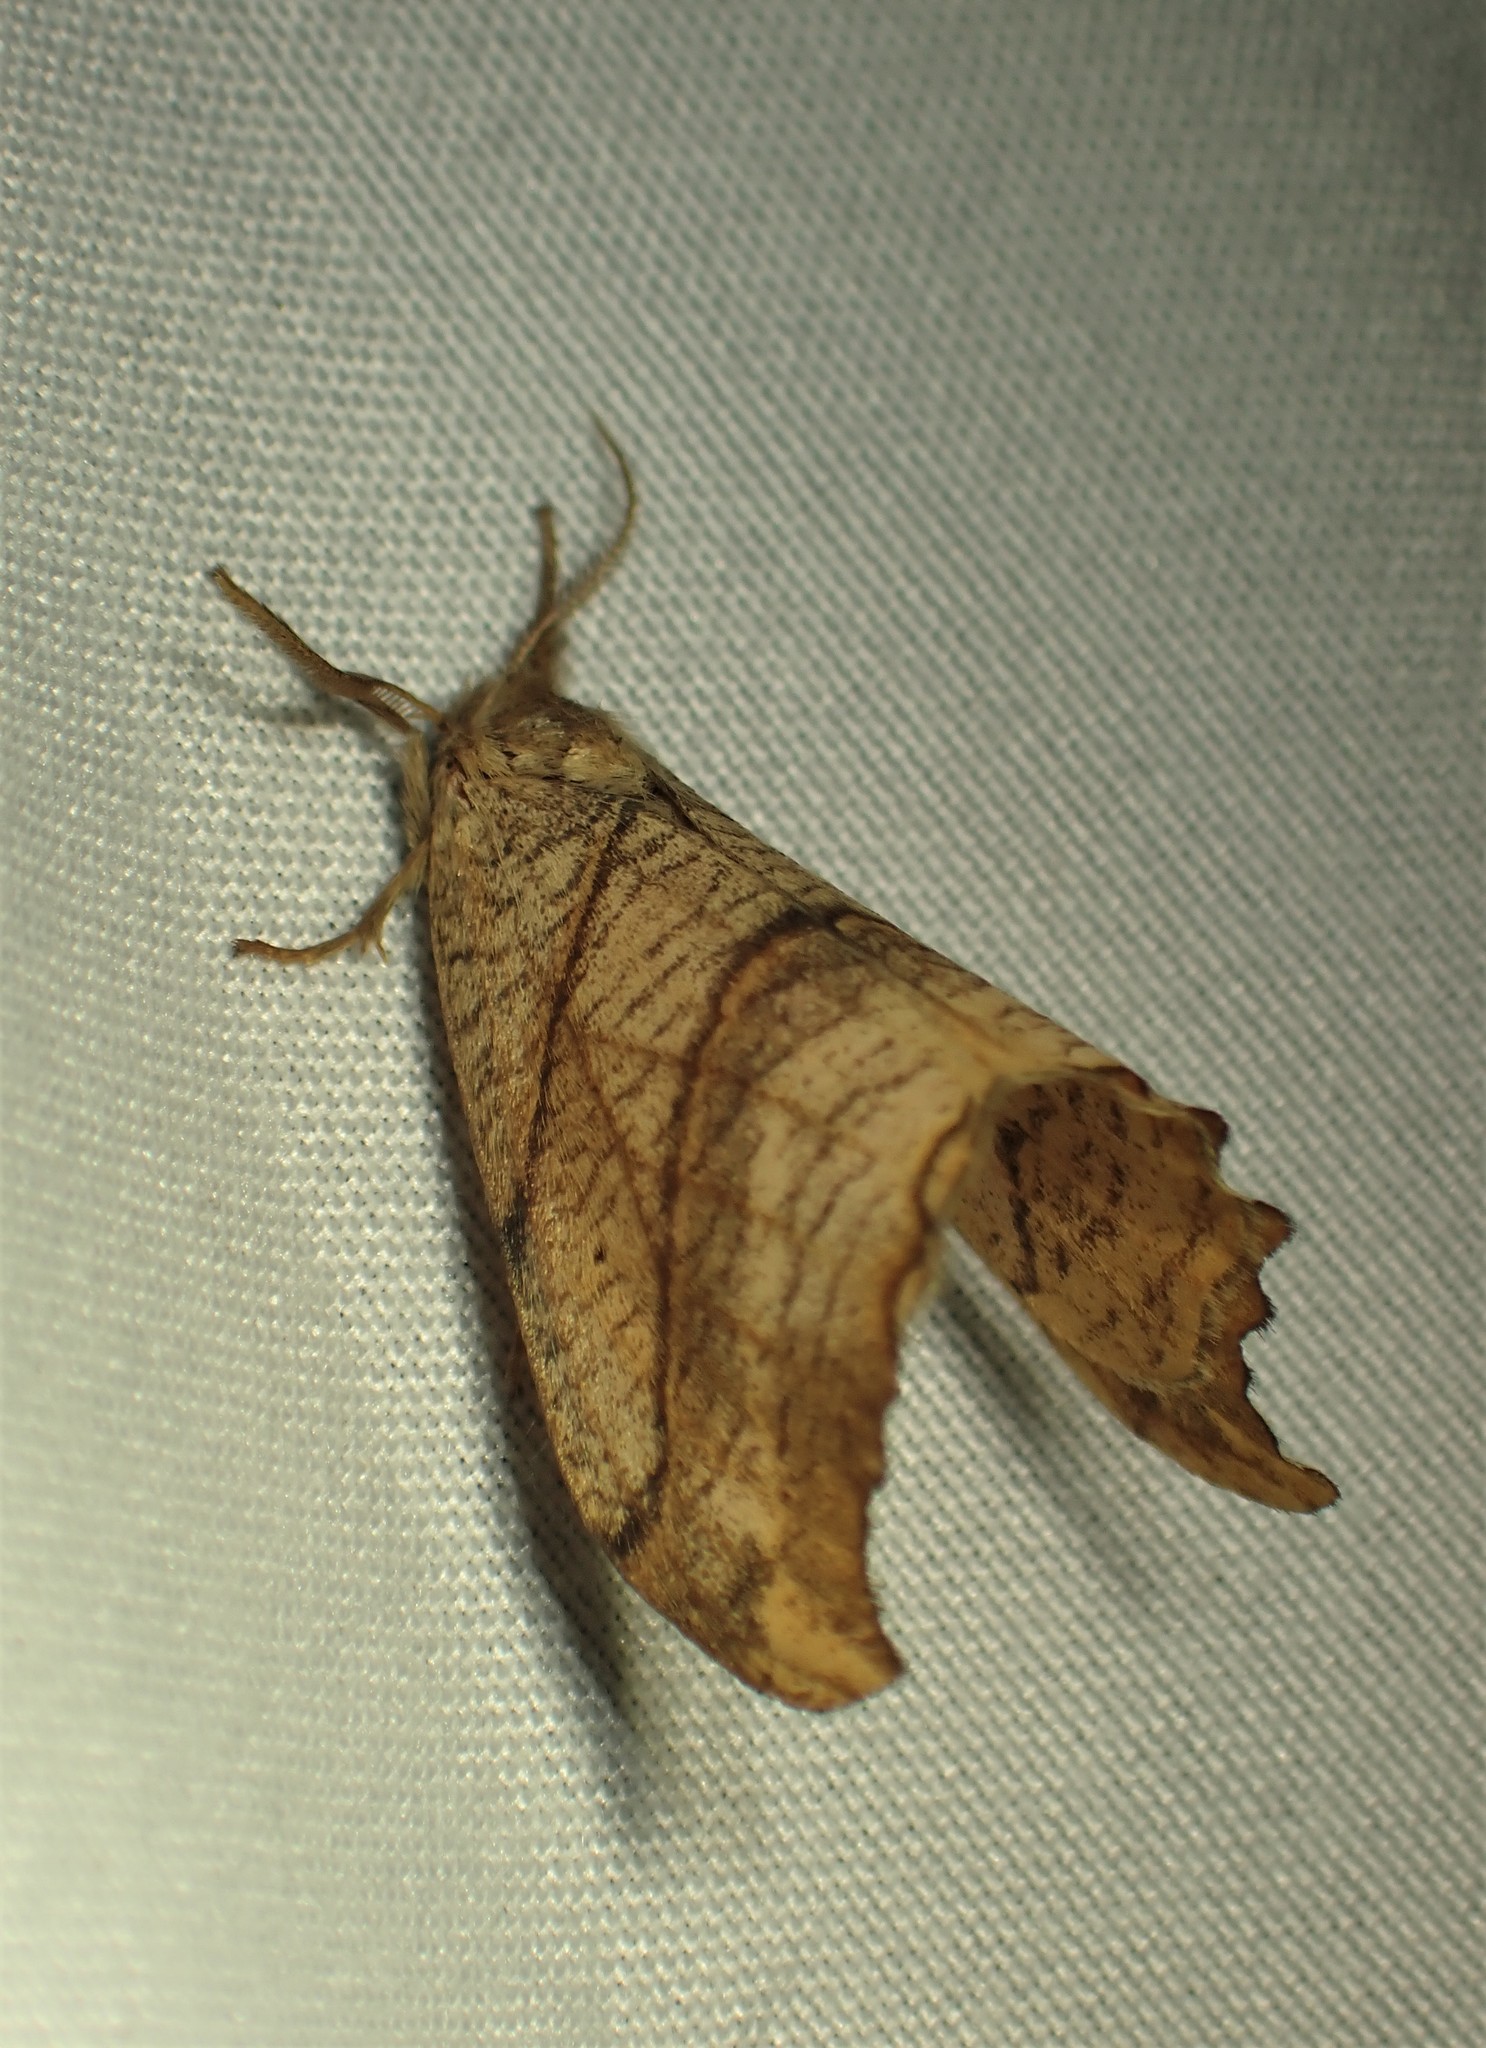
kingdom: Animalia
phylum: Arthropoda
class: Insecta
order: Lepidoptera
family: Drepanidae
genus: Falcaria
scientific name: Falcaria bilineata
